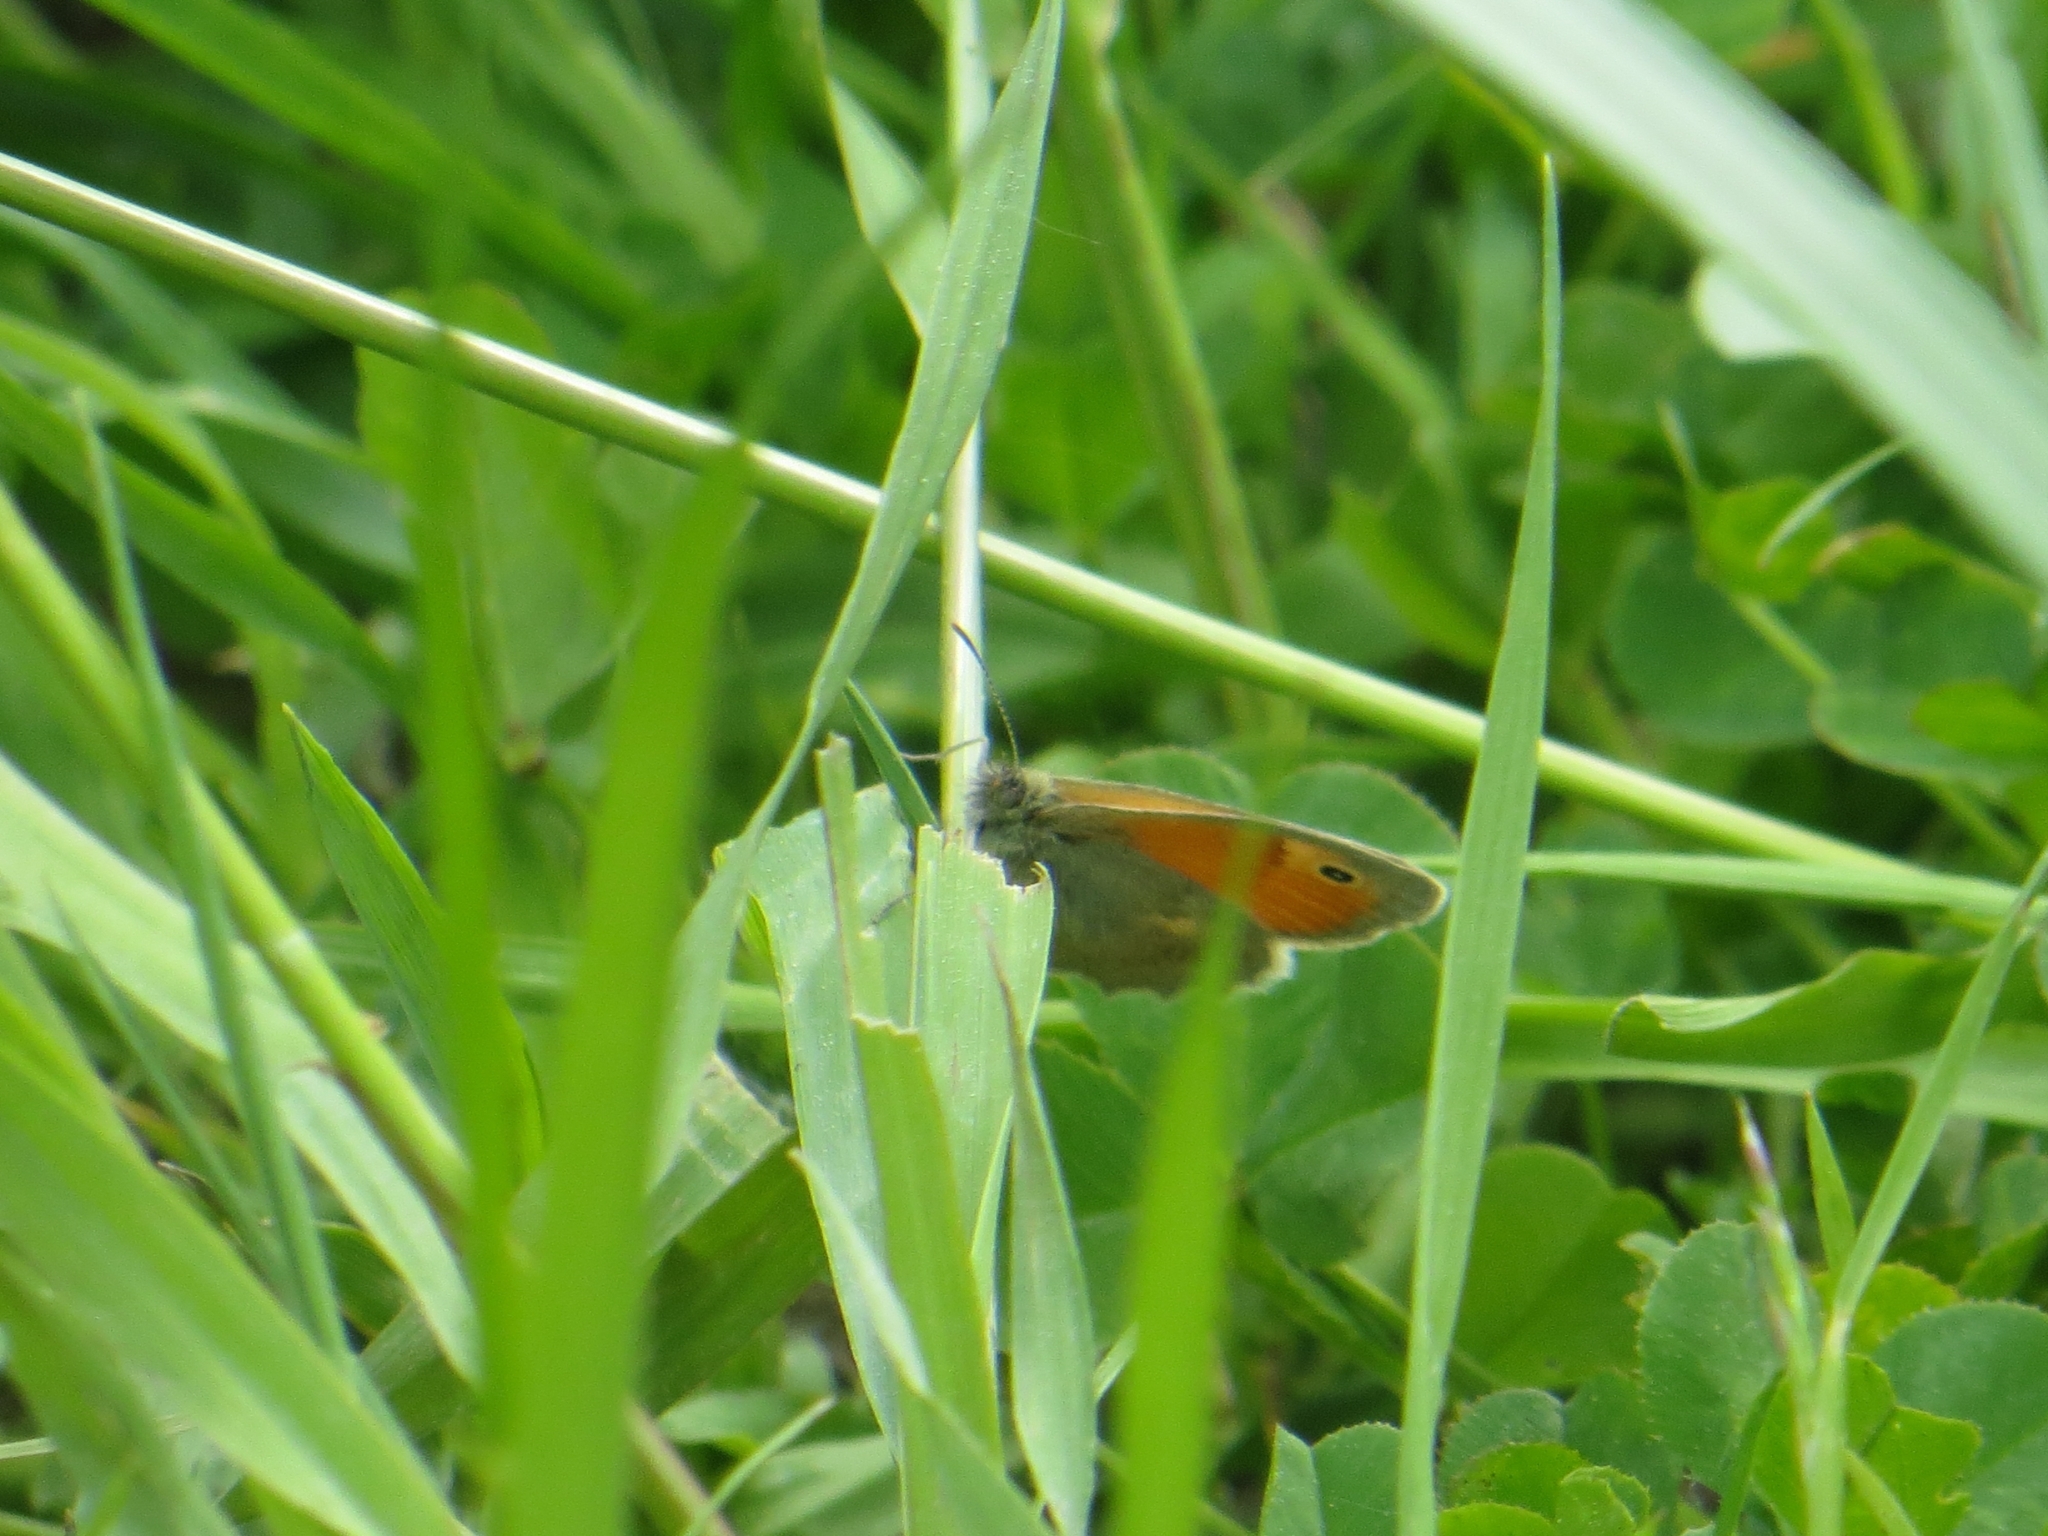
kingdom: Animalia
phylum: Arthropoda
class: Insecta
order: Lepidoptera
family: Nymphalidae
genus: Coenonympha
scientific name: Coenonympha pamphilus
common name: Small heath
